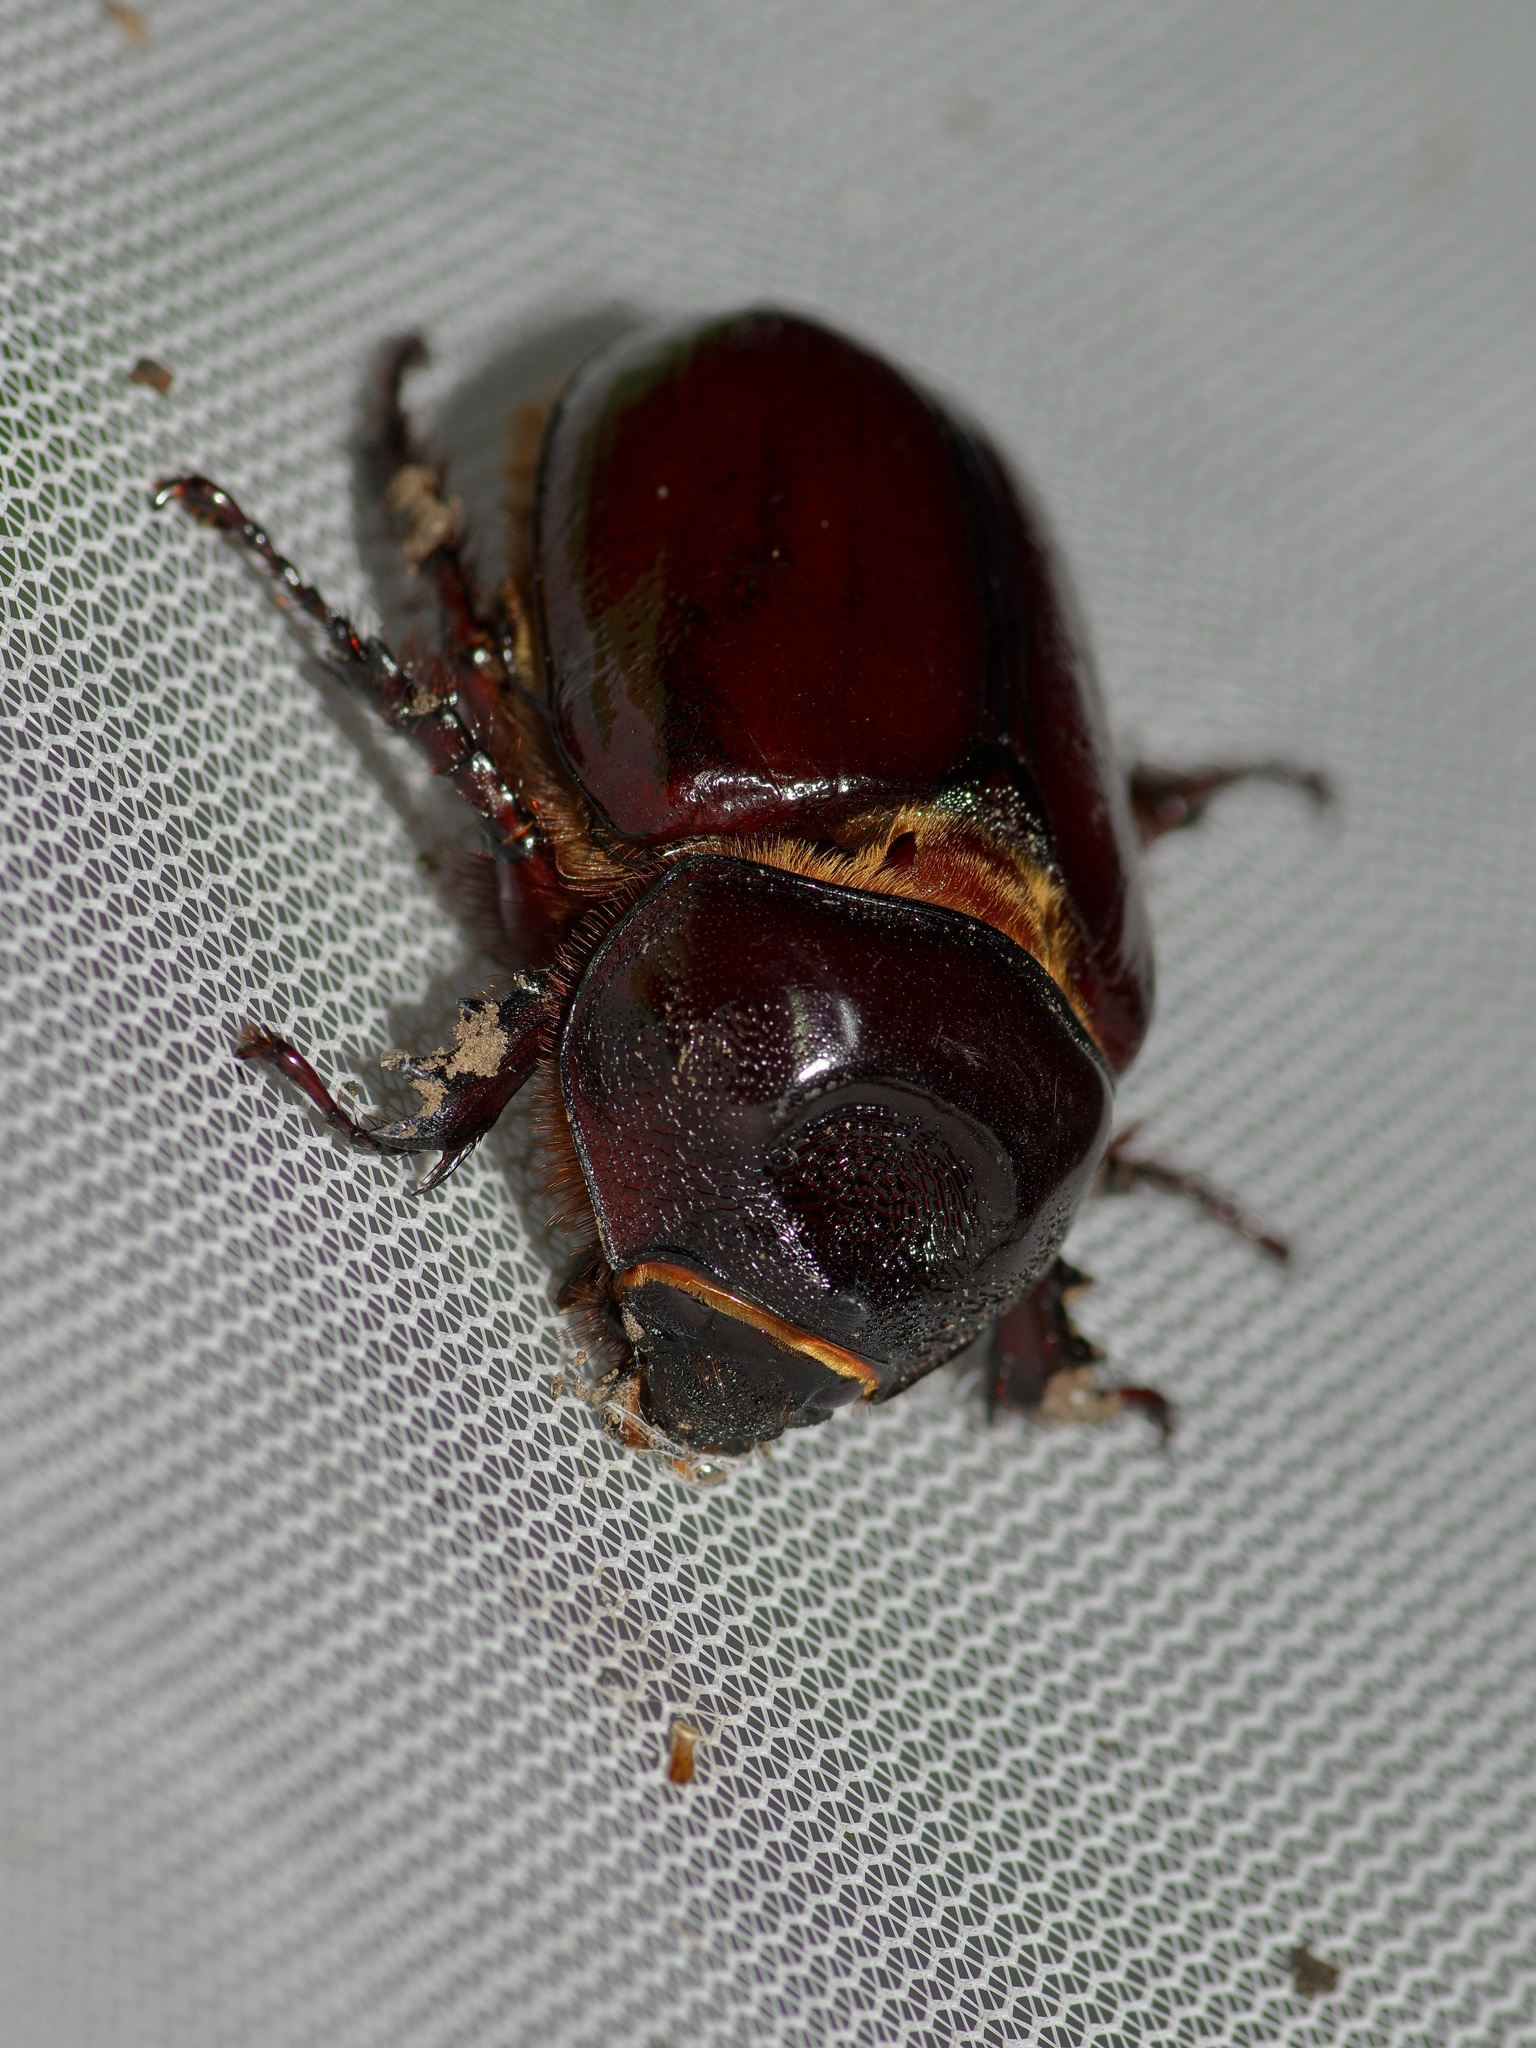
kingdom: Animalia
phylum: Arthropoda
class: Insecta
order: Coleoptera
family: Scarabaeidae
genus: Strategus
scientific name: Strategus aloeus
